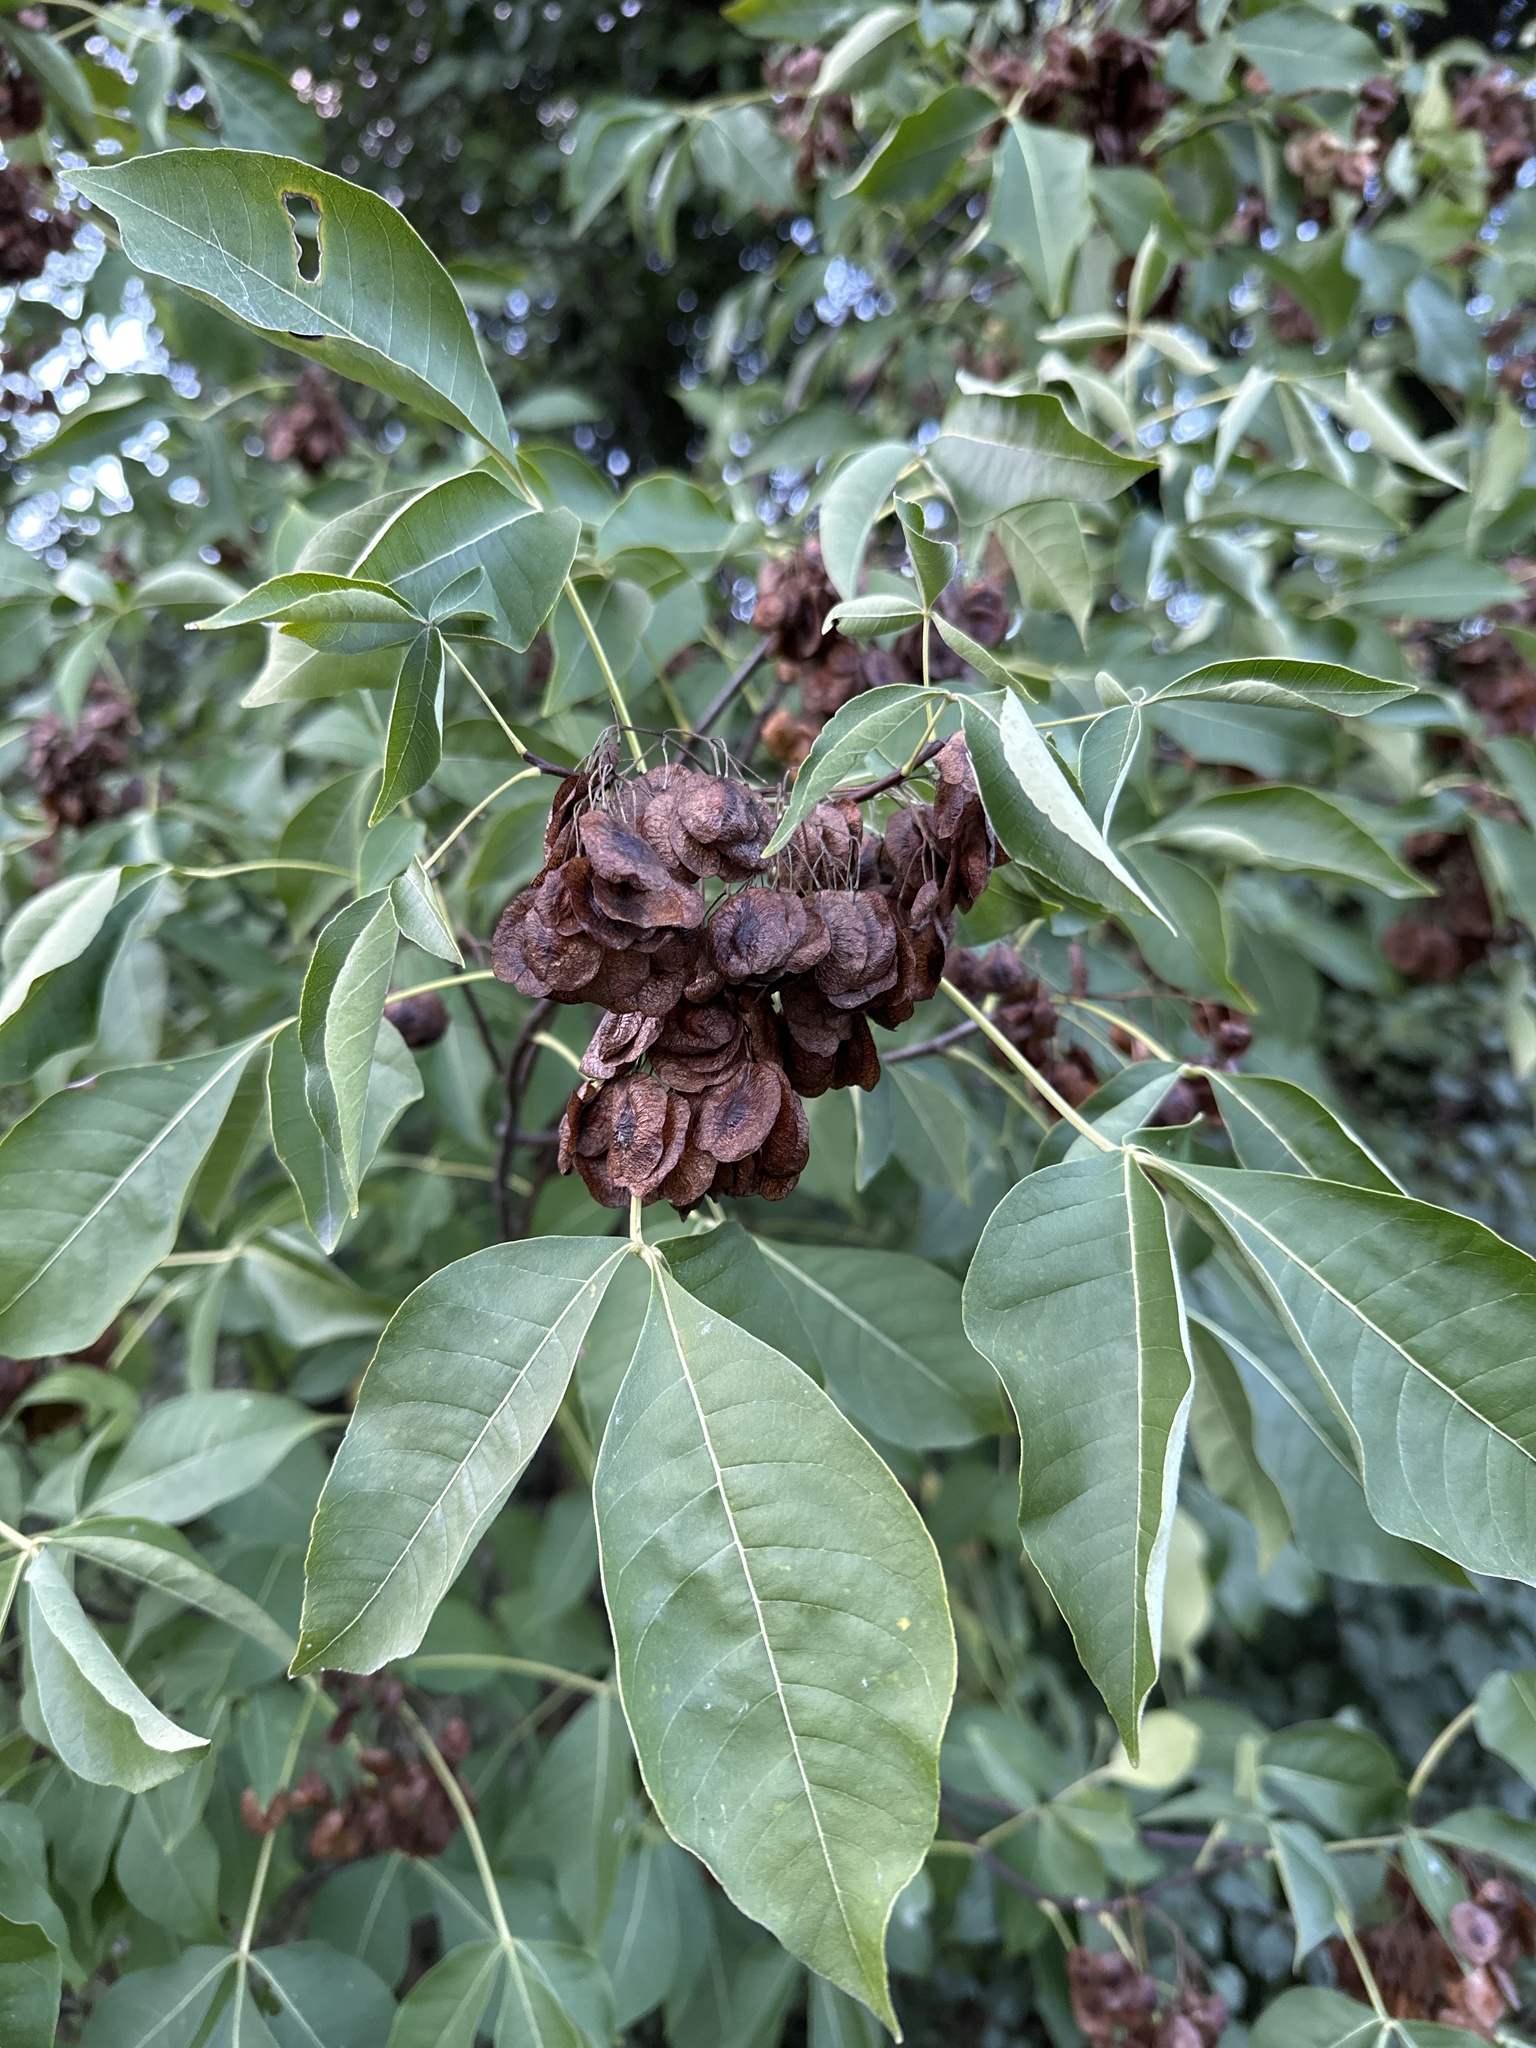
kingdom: Plantae
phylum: Tracheophyta
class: Magnoliopsida
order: Sapindales
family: Rutaceae
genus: Ptelea
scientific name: Ptelea trifoliata
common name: Common hop-tree
